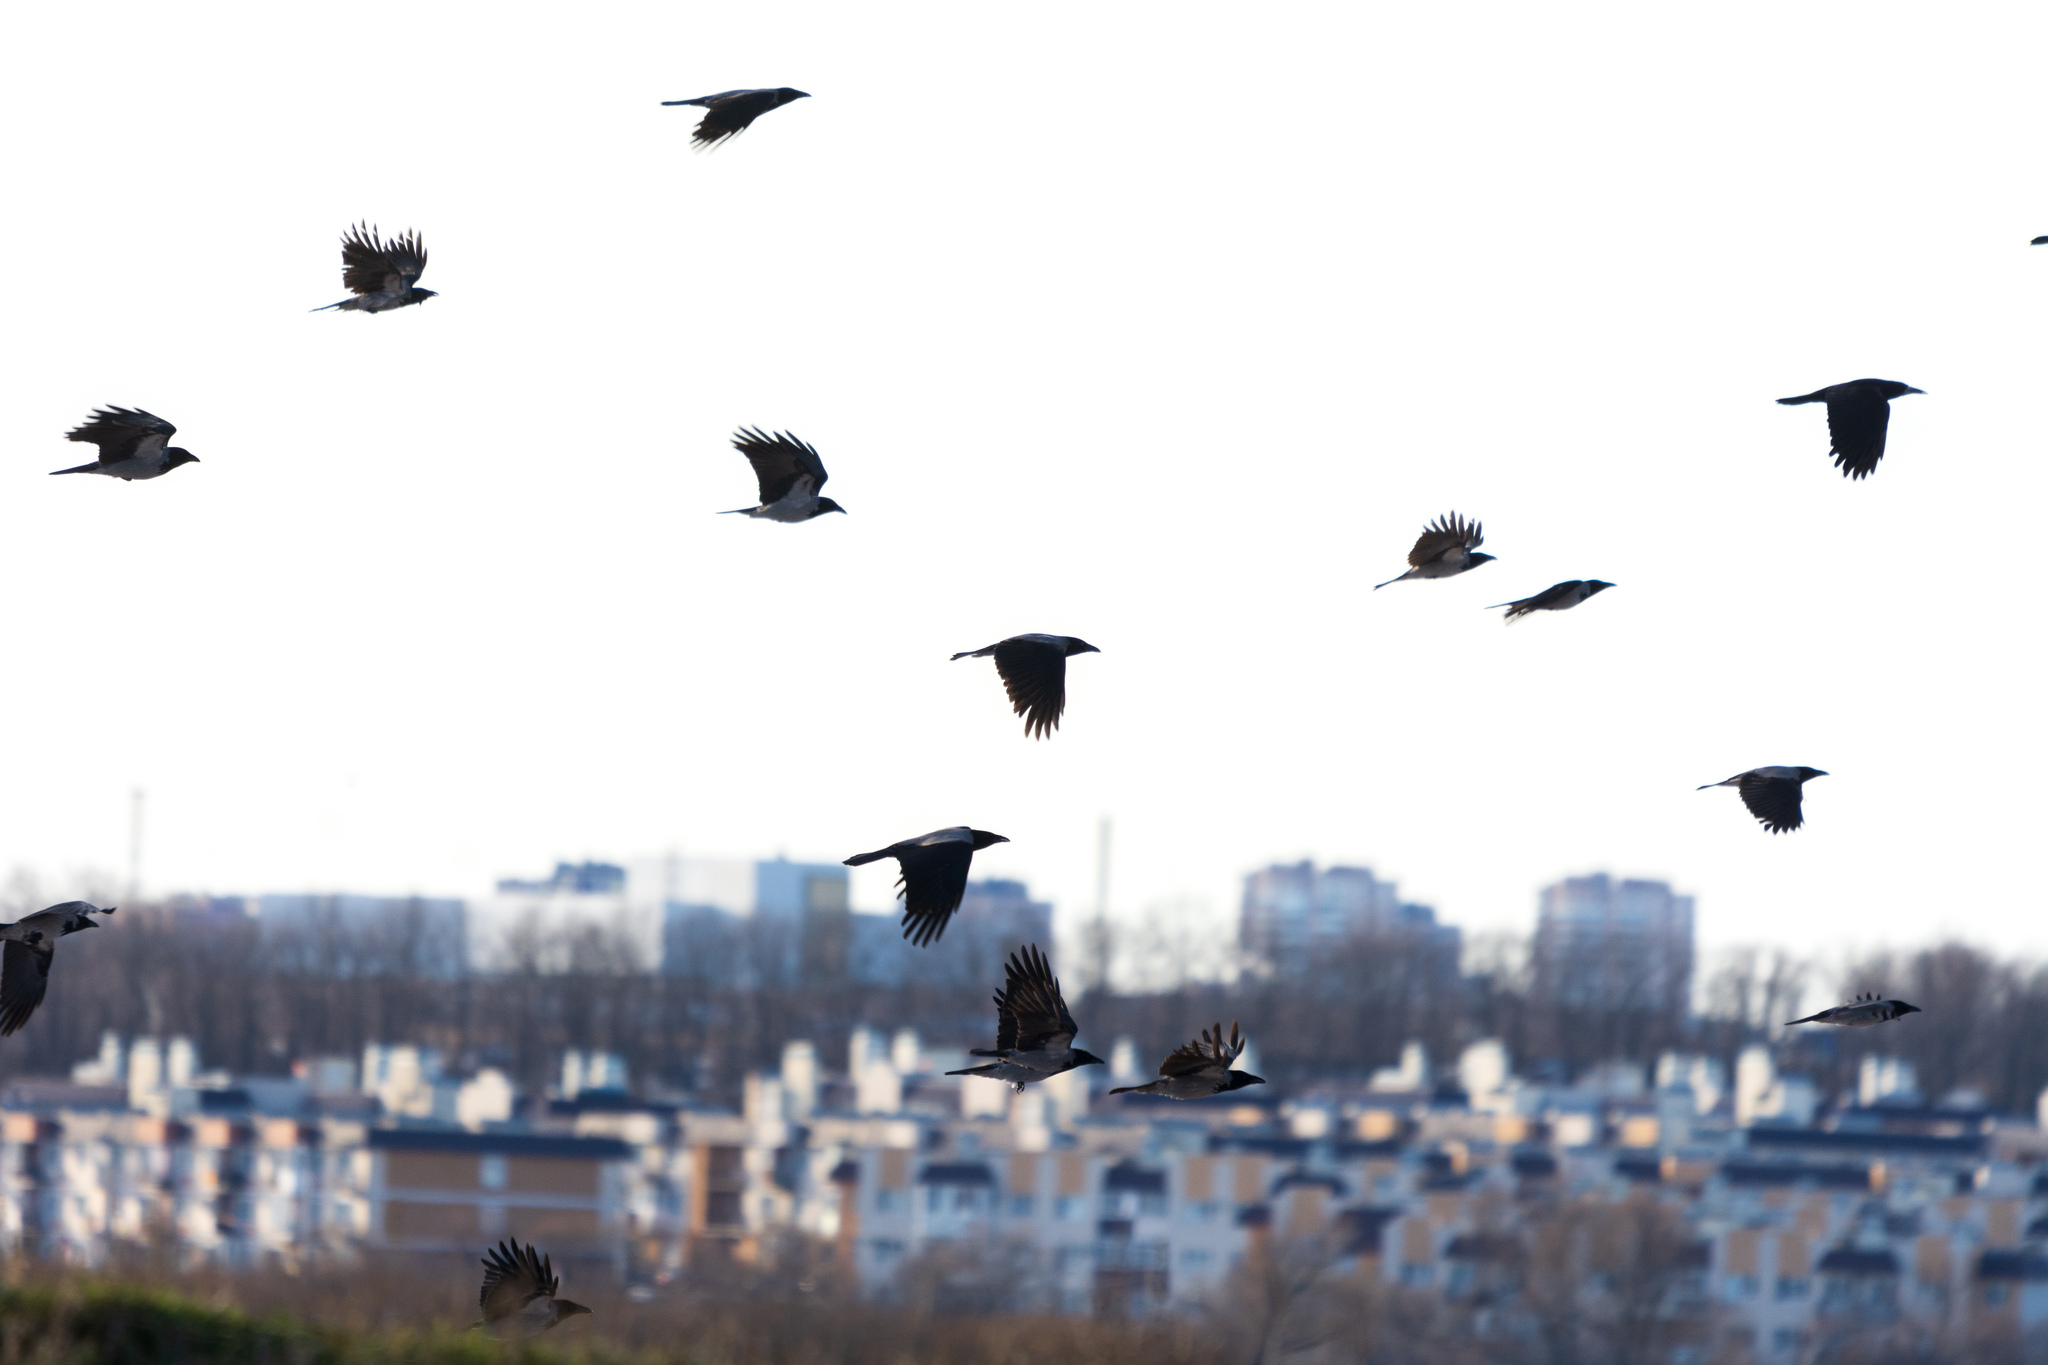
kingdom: Animalia
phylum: Chordata
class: Aves
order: Passeriformes
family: Corvidae
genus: Corvus
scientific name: Corvus cornix
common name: Hooded crow
